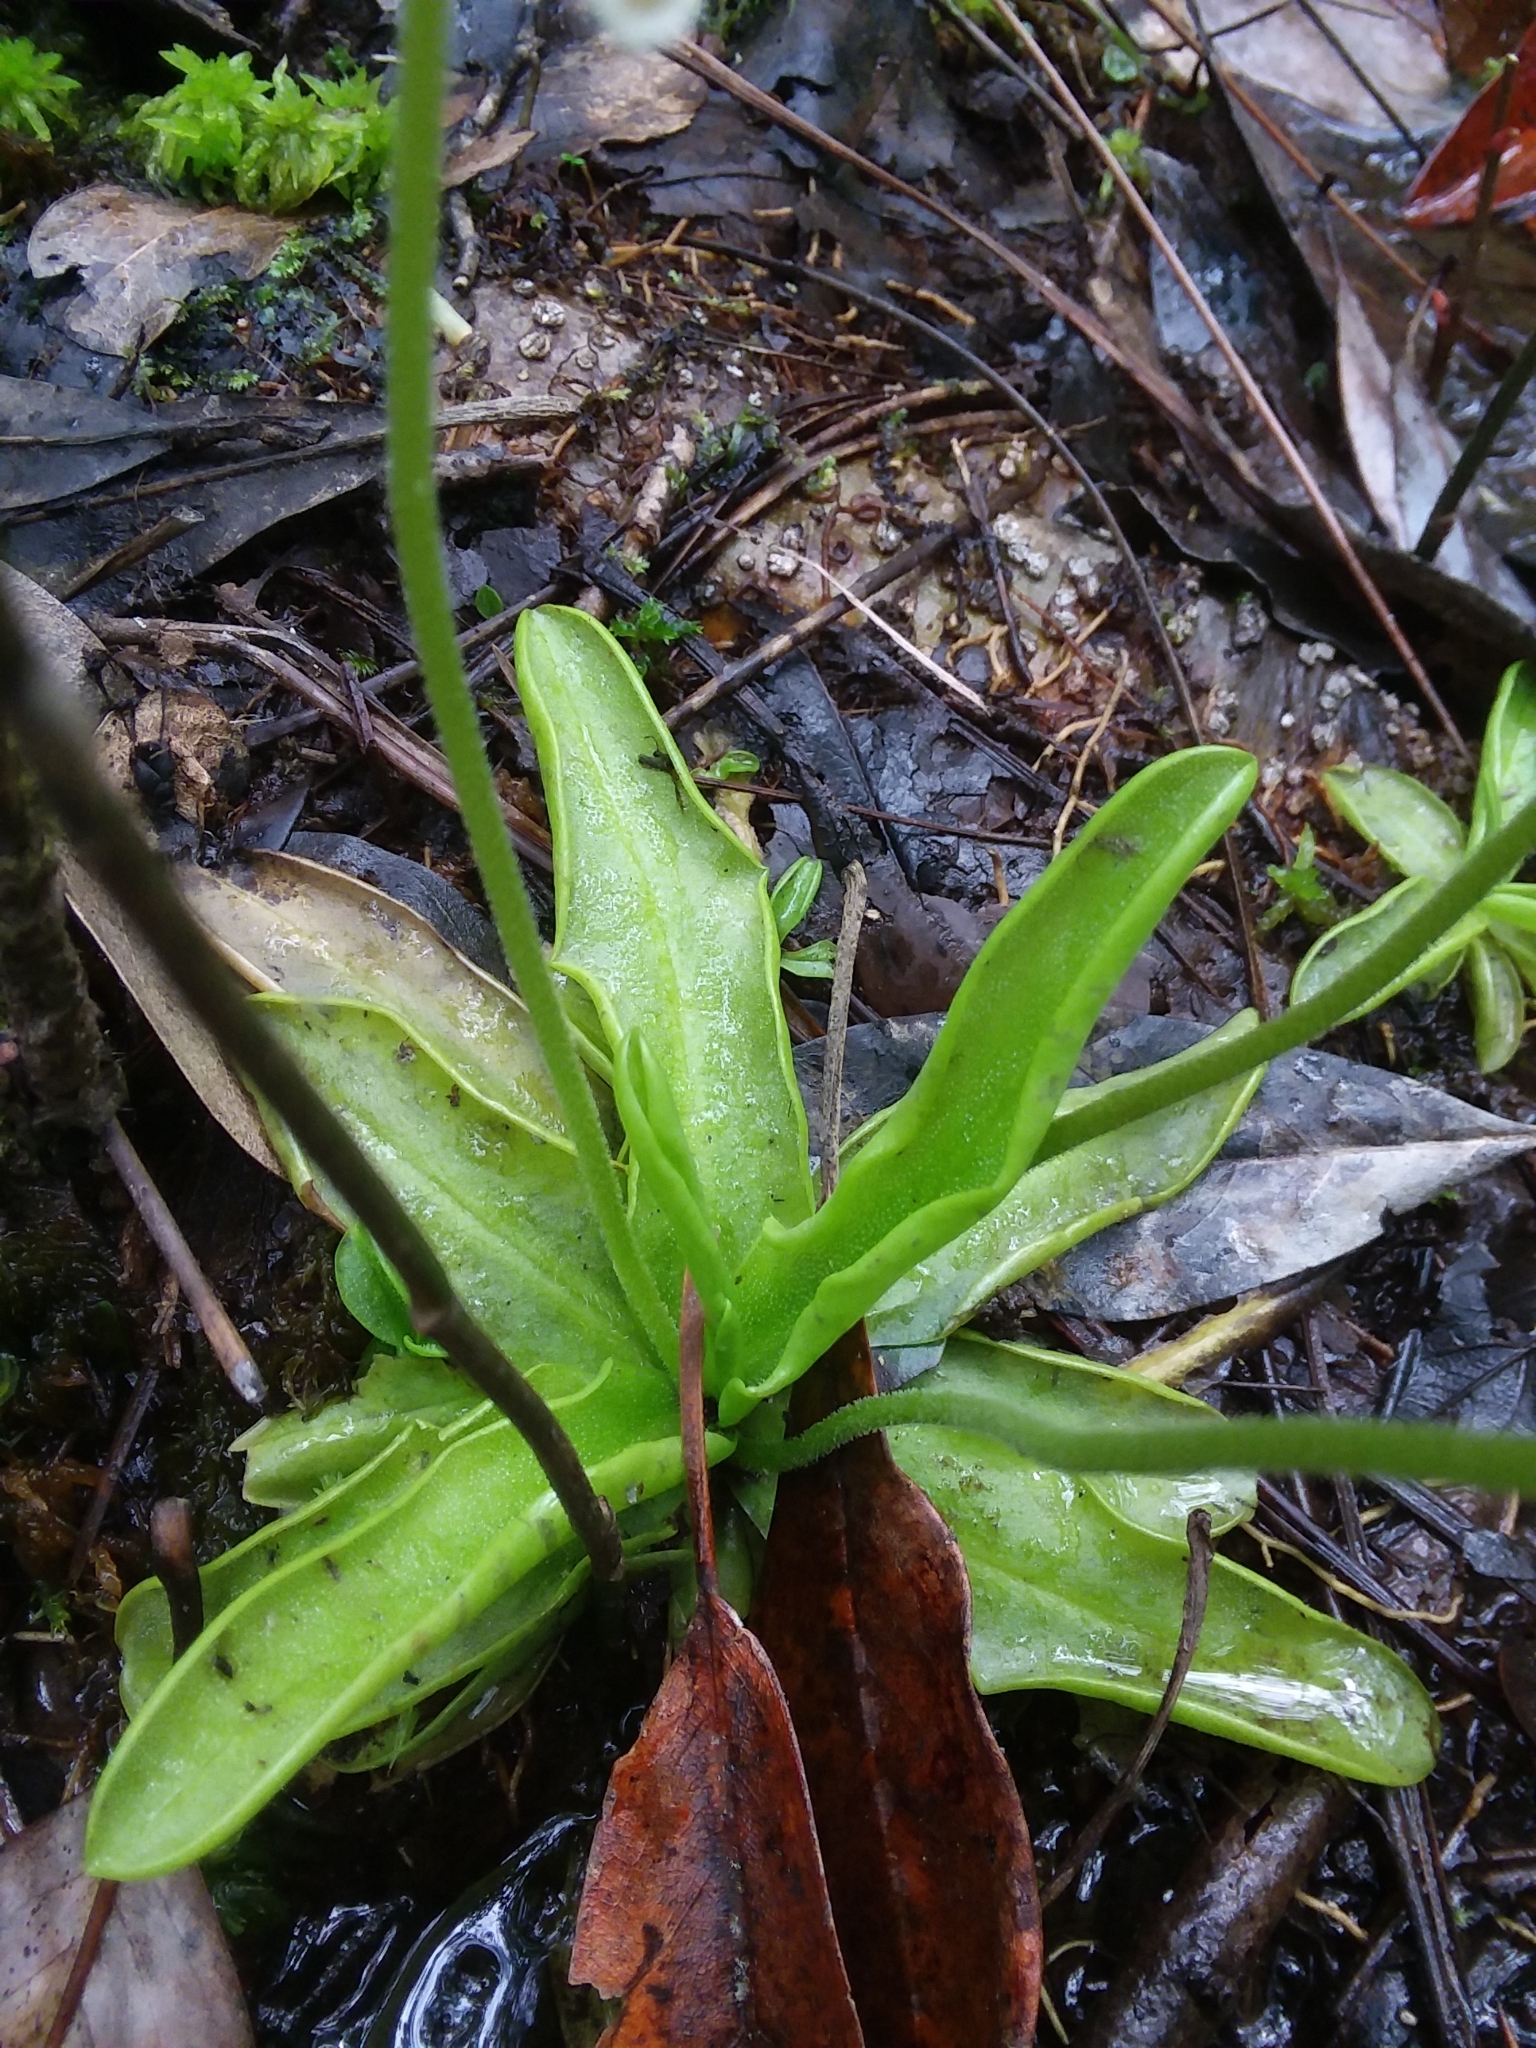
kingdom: Plantae
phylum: Tracheophyta
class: Magnoliopsida
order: Lamiales
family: Lentibulariaceae
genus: Pinguicula
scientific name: Pinguicula primuliflora
